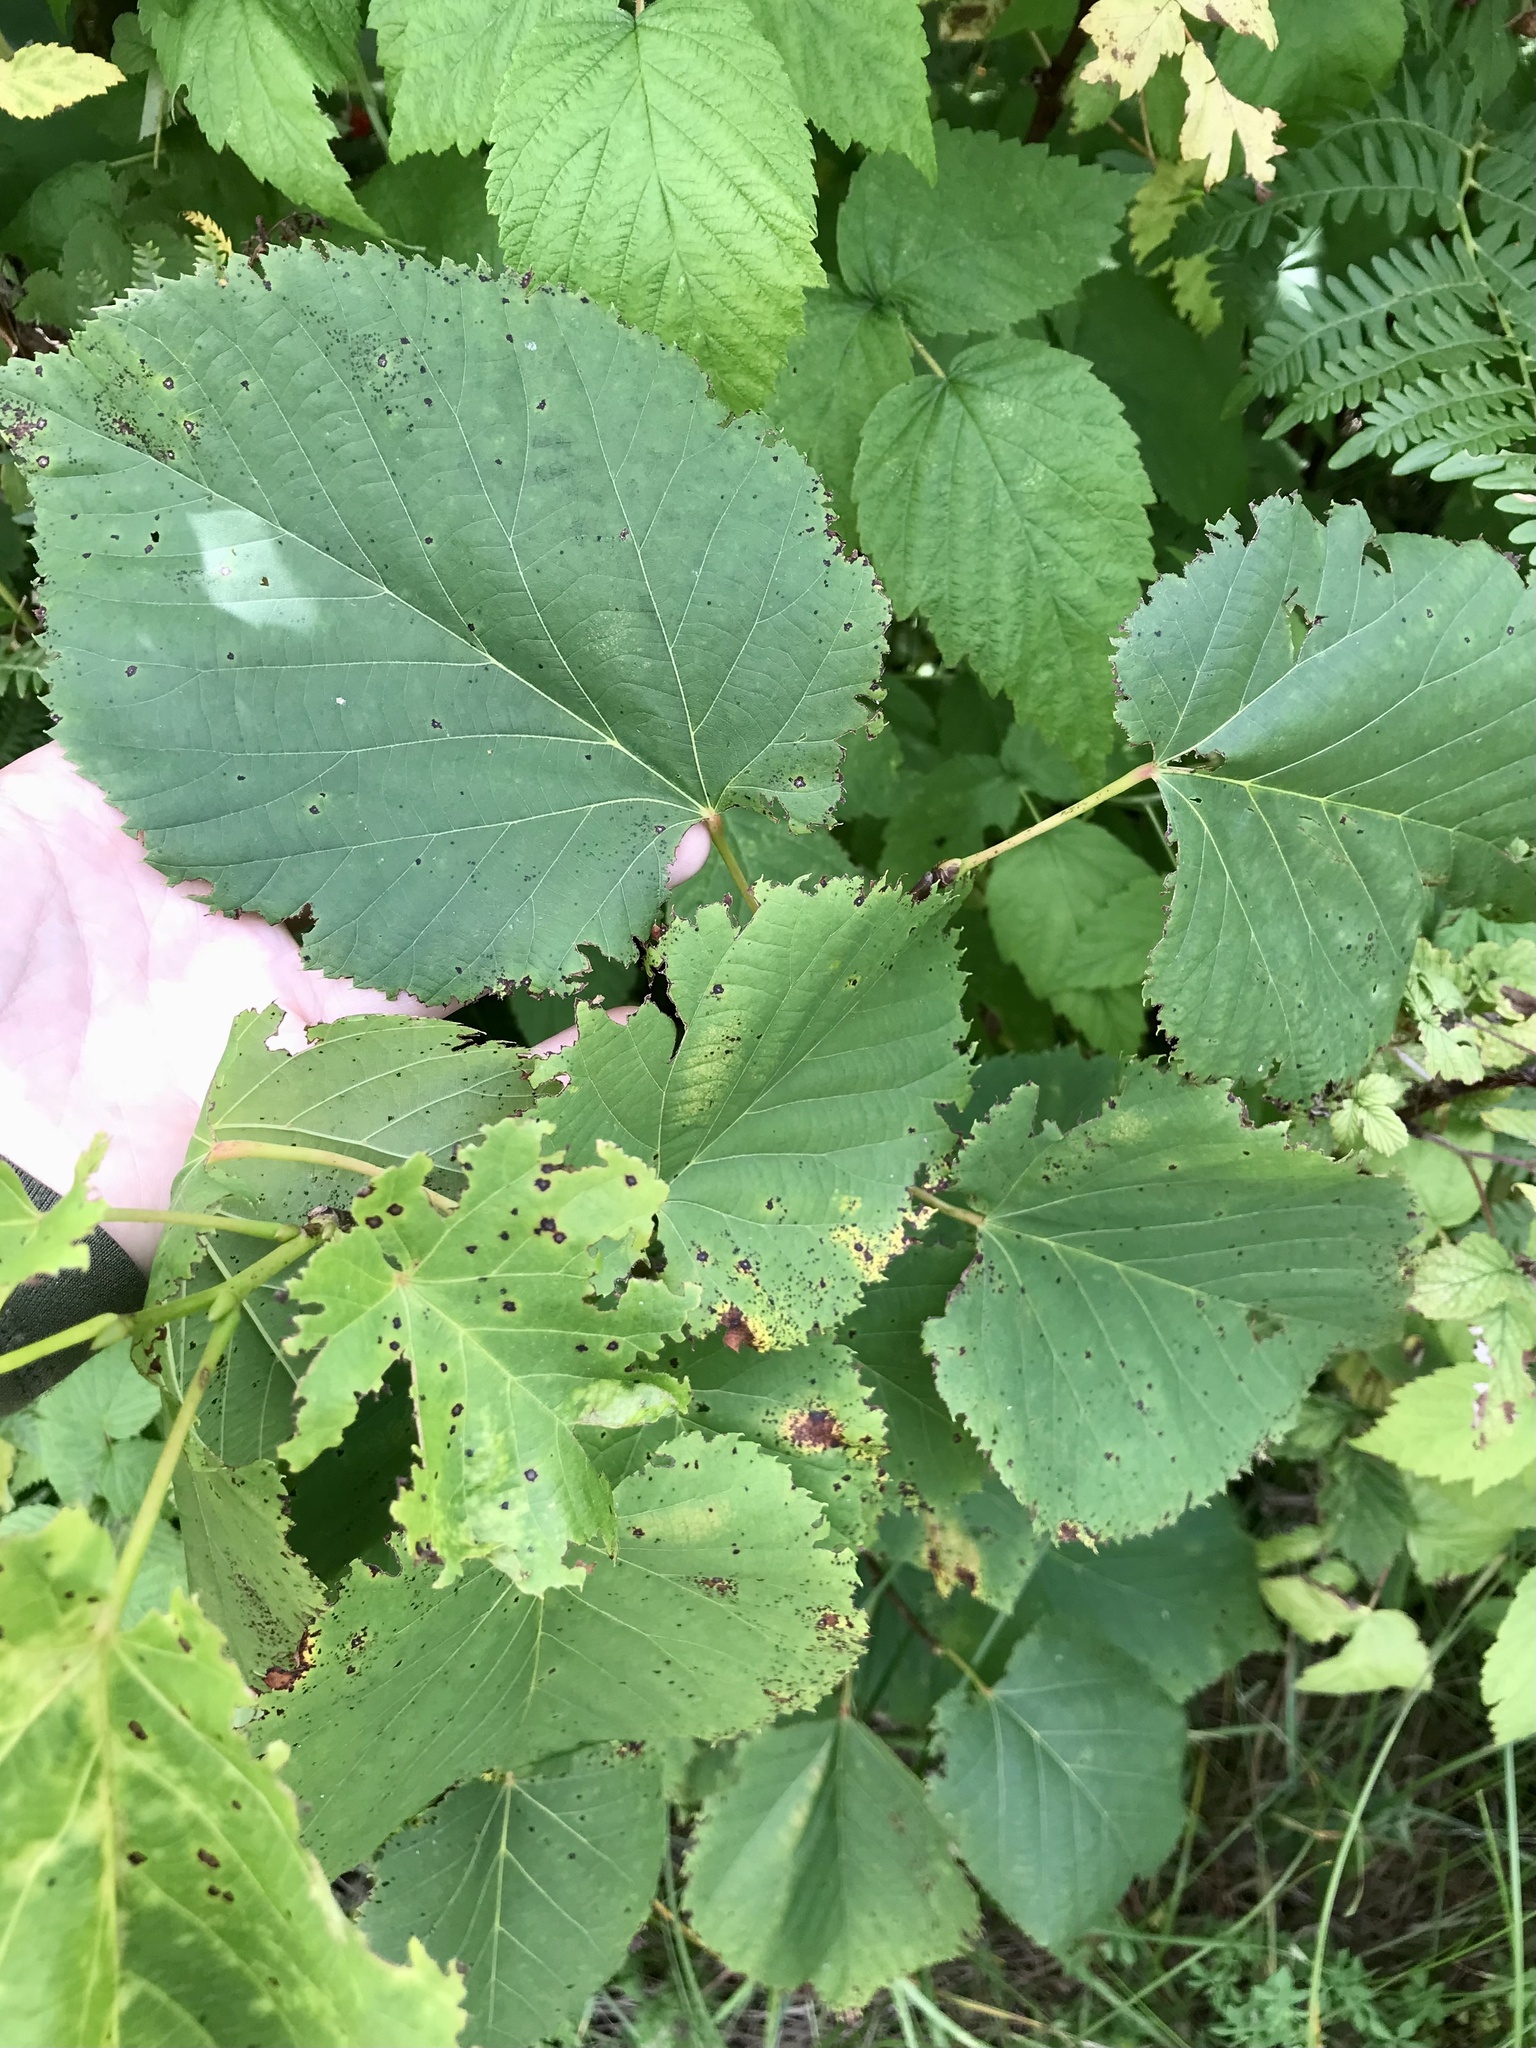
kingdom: Plantae
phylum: Tracheophyta
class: Magnoliopsida
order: Malvales
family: Malvaceae
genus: Tilia
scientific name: Tilia americana
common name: Basswood
